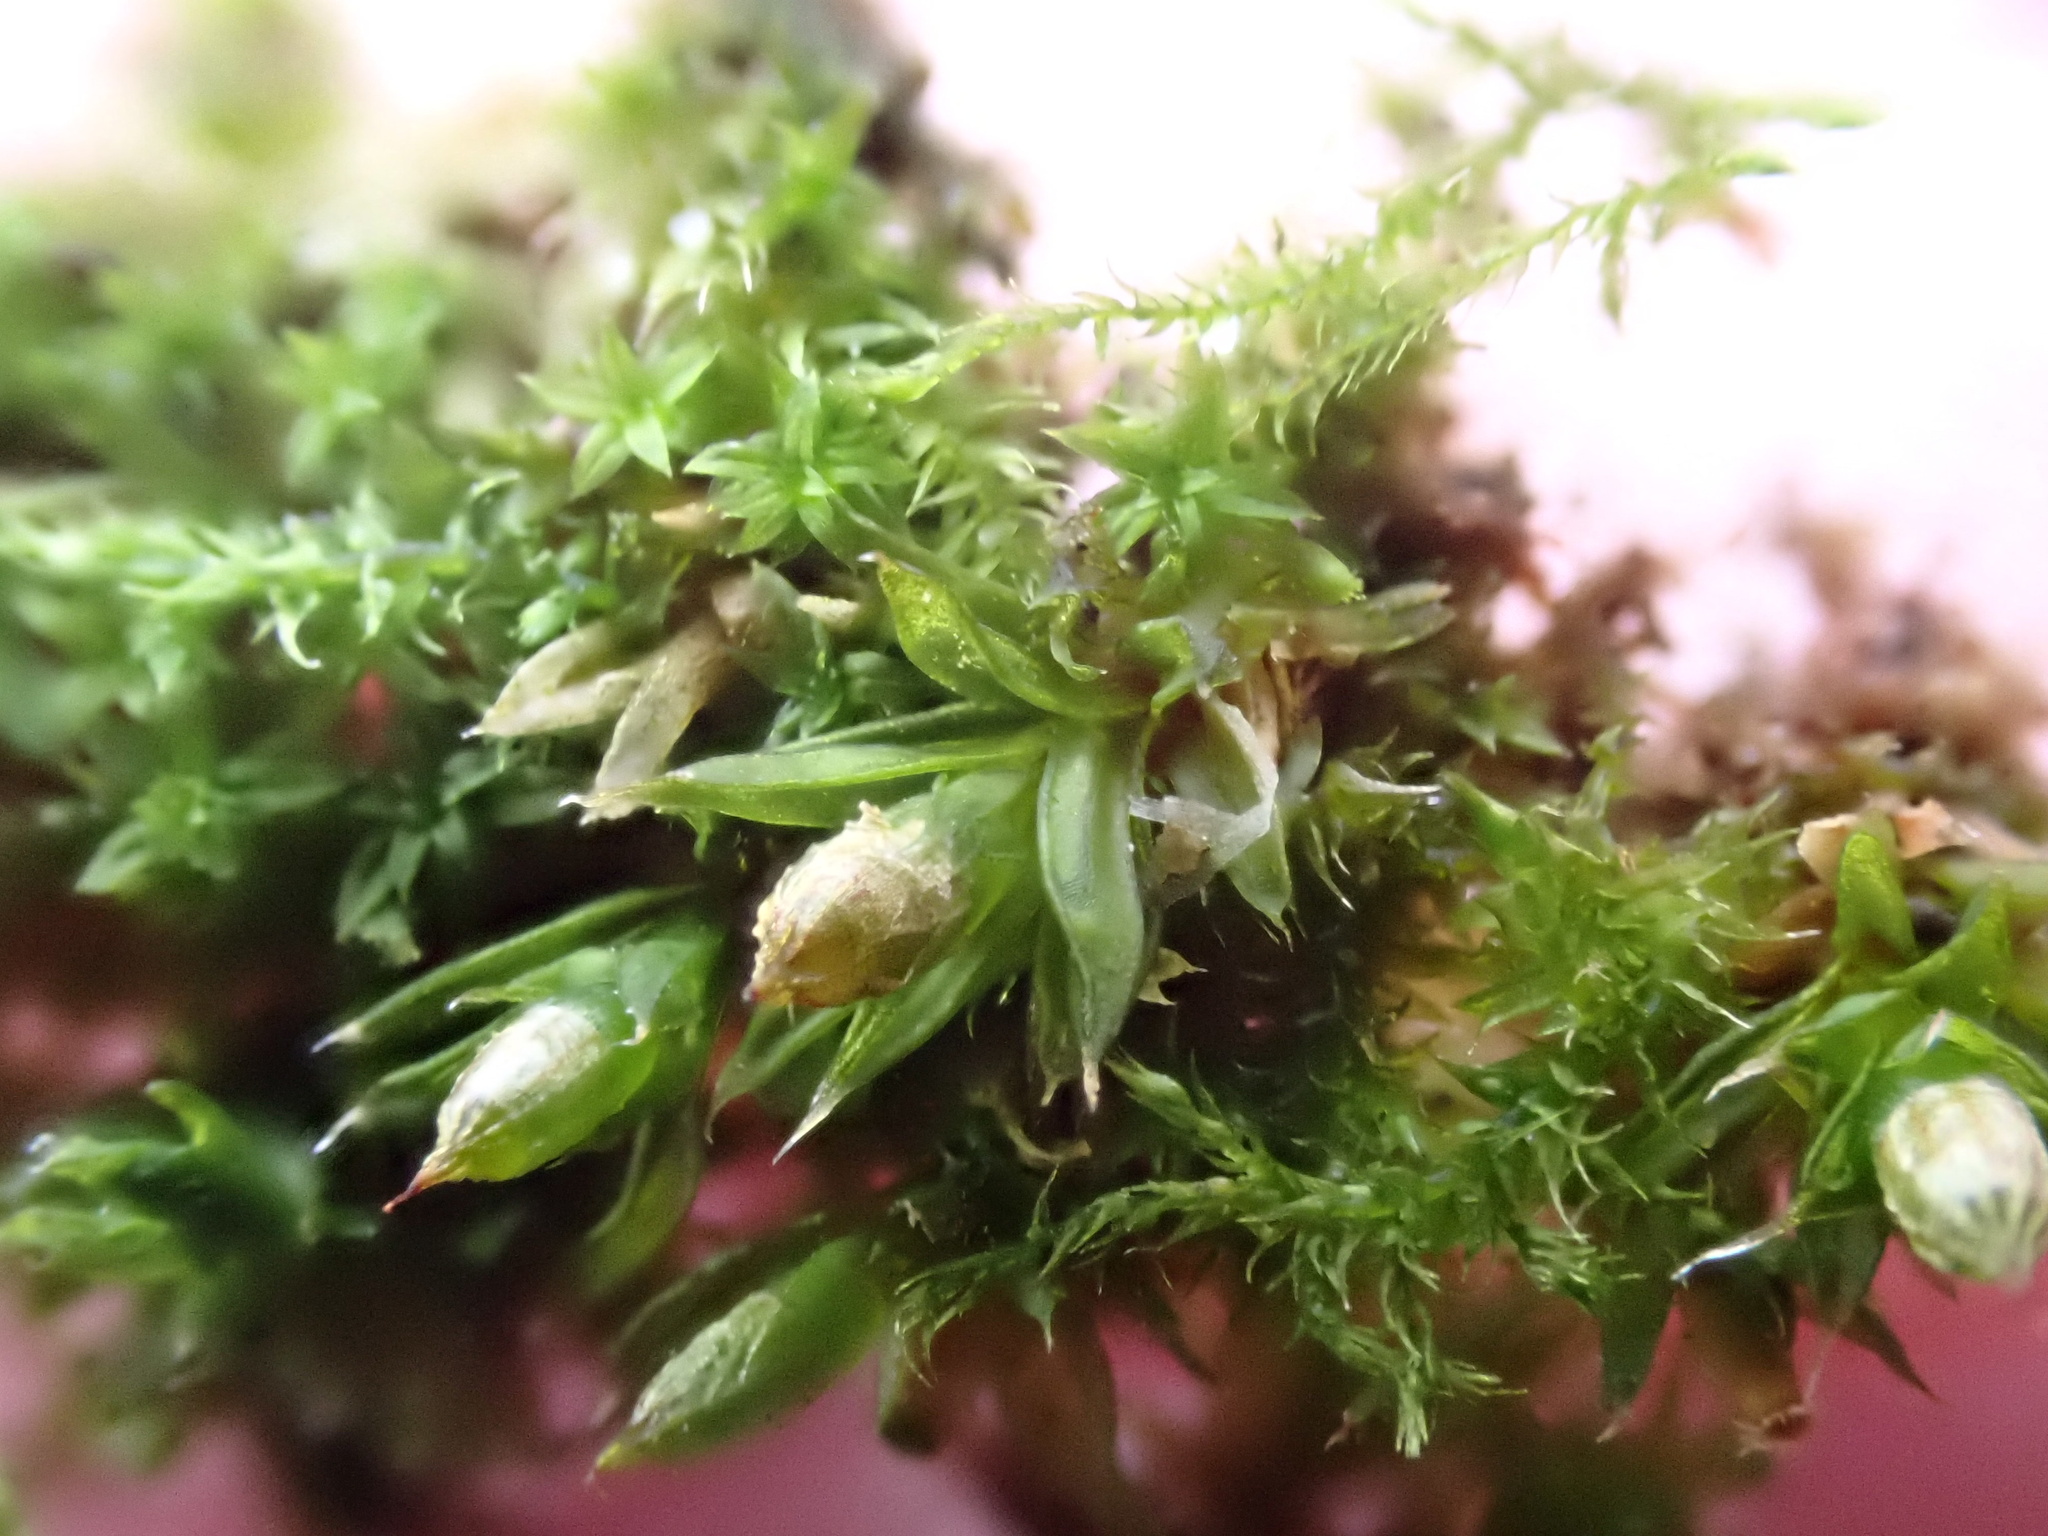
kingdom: Plantae
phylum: Bryophyta
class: Bryopsida
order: Orthotrichales
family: Orthotrichaceae
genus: Orthotrichum
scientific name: Orthotrichum diaphanum
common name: White-tipped bristle-moss
